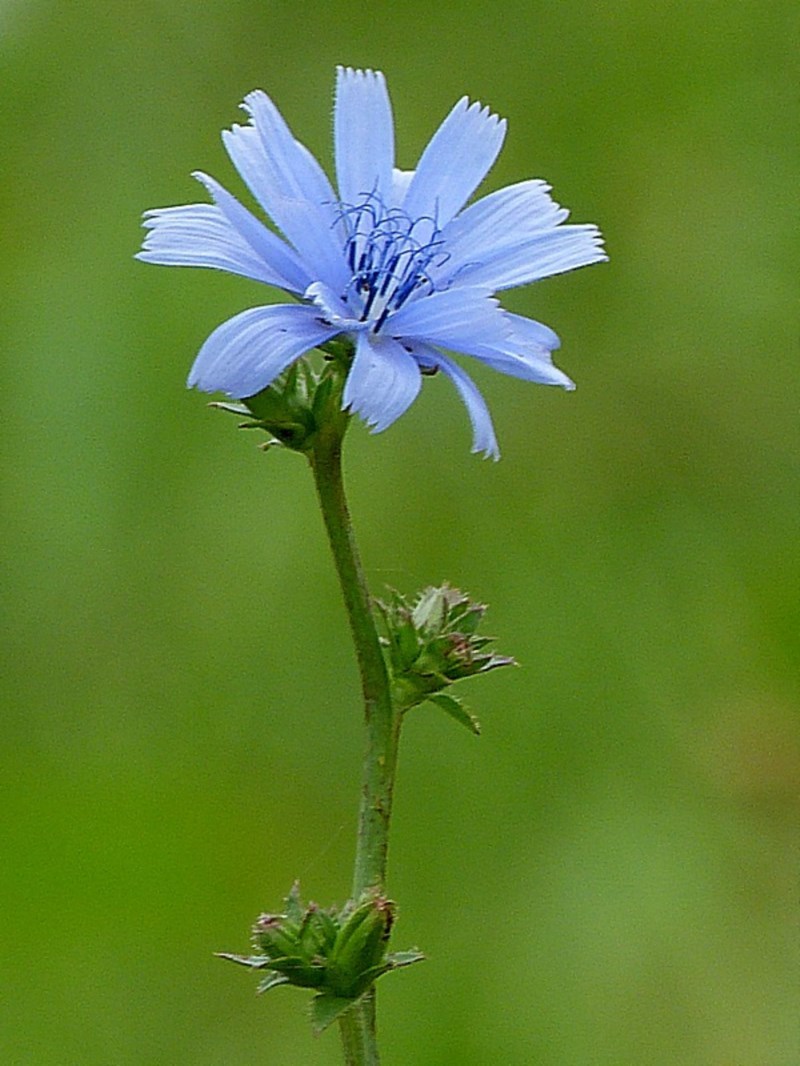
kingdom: Plantae
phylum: Tracheophyta
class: Magnoliopsida
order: Asterales
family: Asteraceae
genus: Cichorium
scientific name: Cichorium intybus
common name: Chicory
